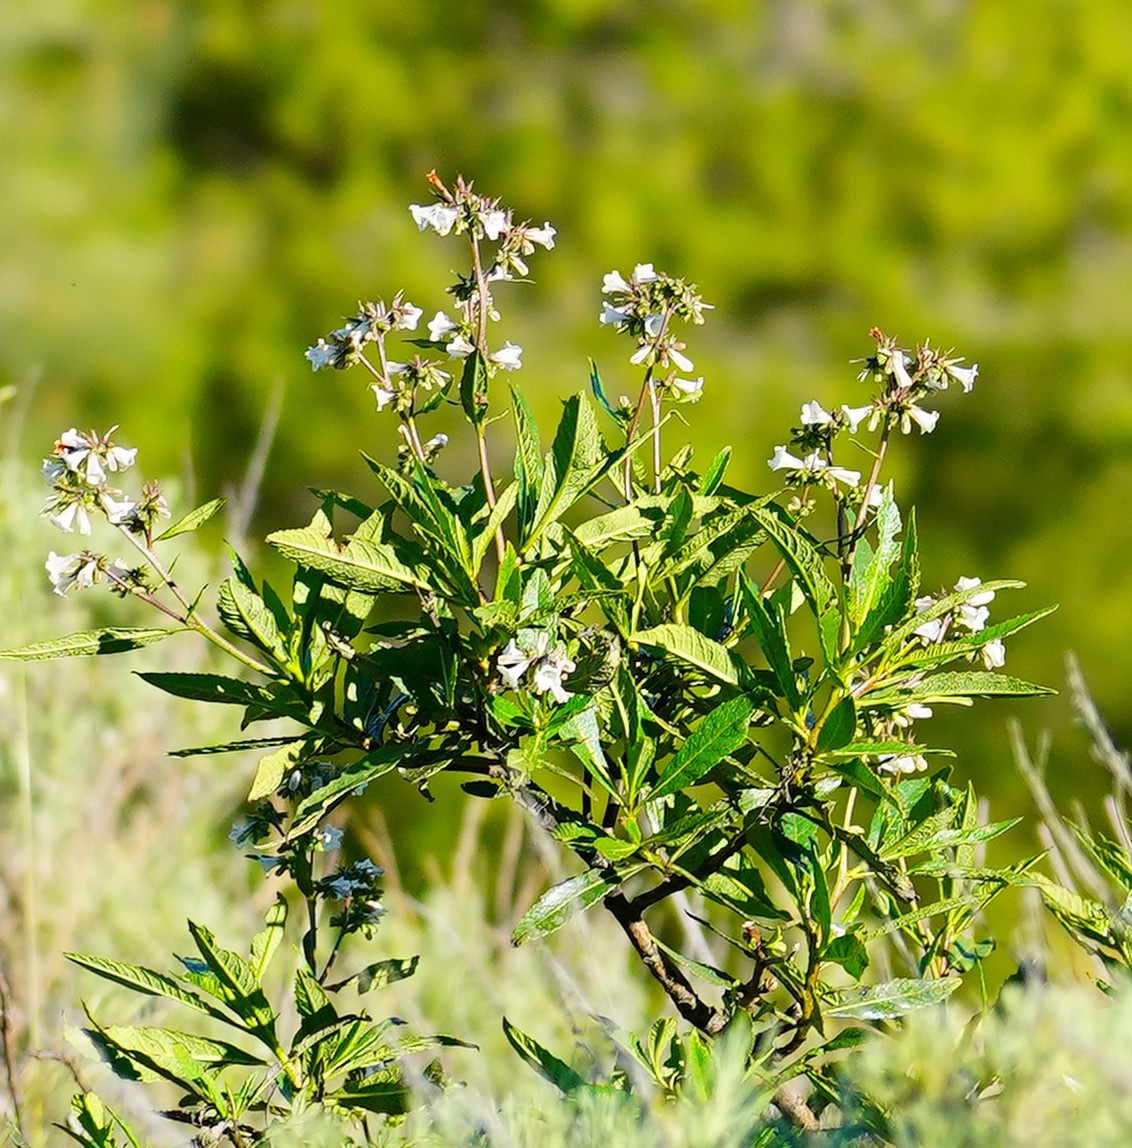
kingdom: Plantae
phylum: Tracheophyta
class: Magnoliopsida
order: Boraginales
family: Namaceae
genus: Eriodictyon
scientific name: Eriodictyon californicum
